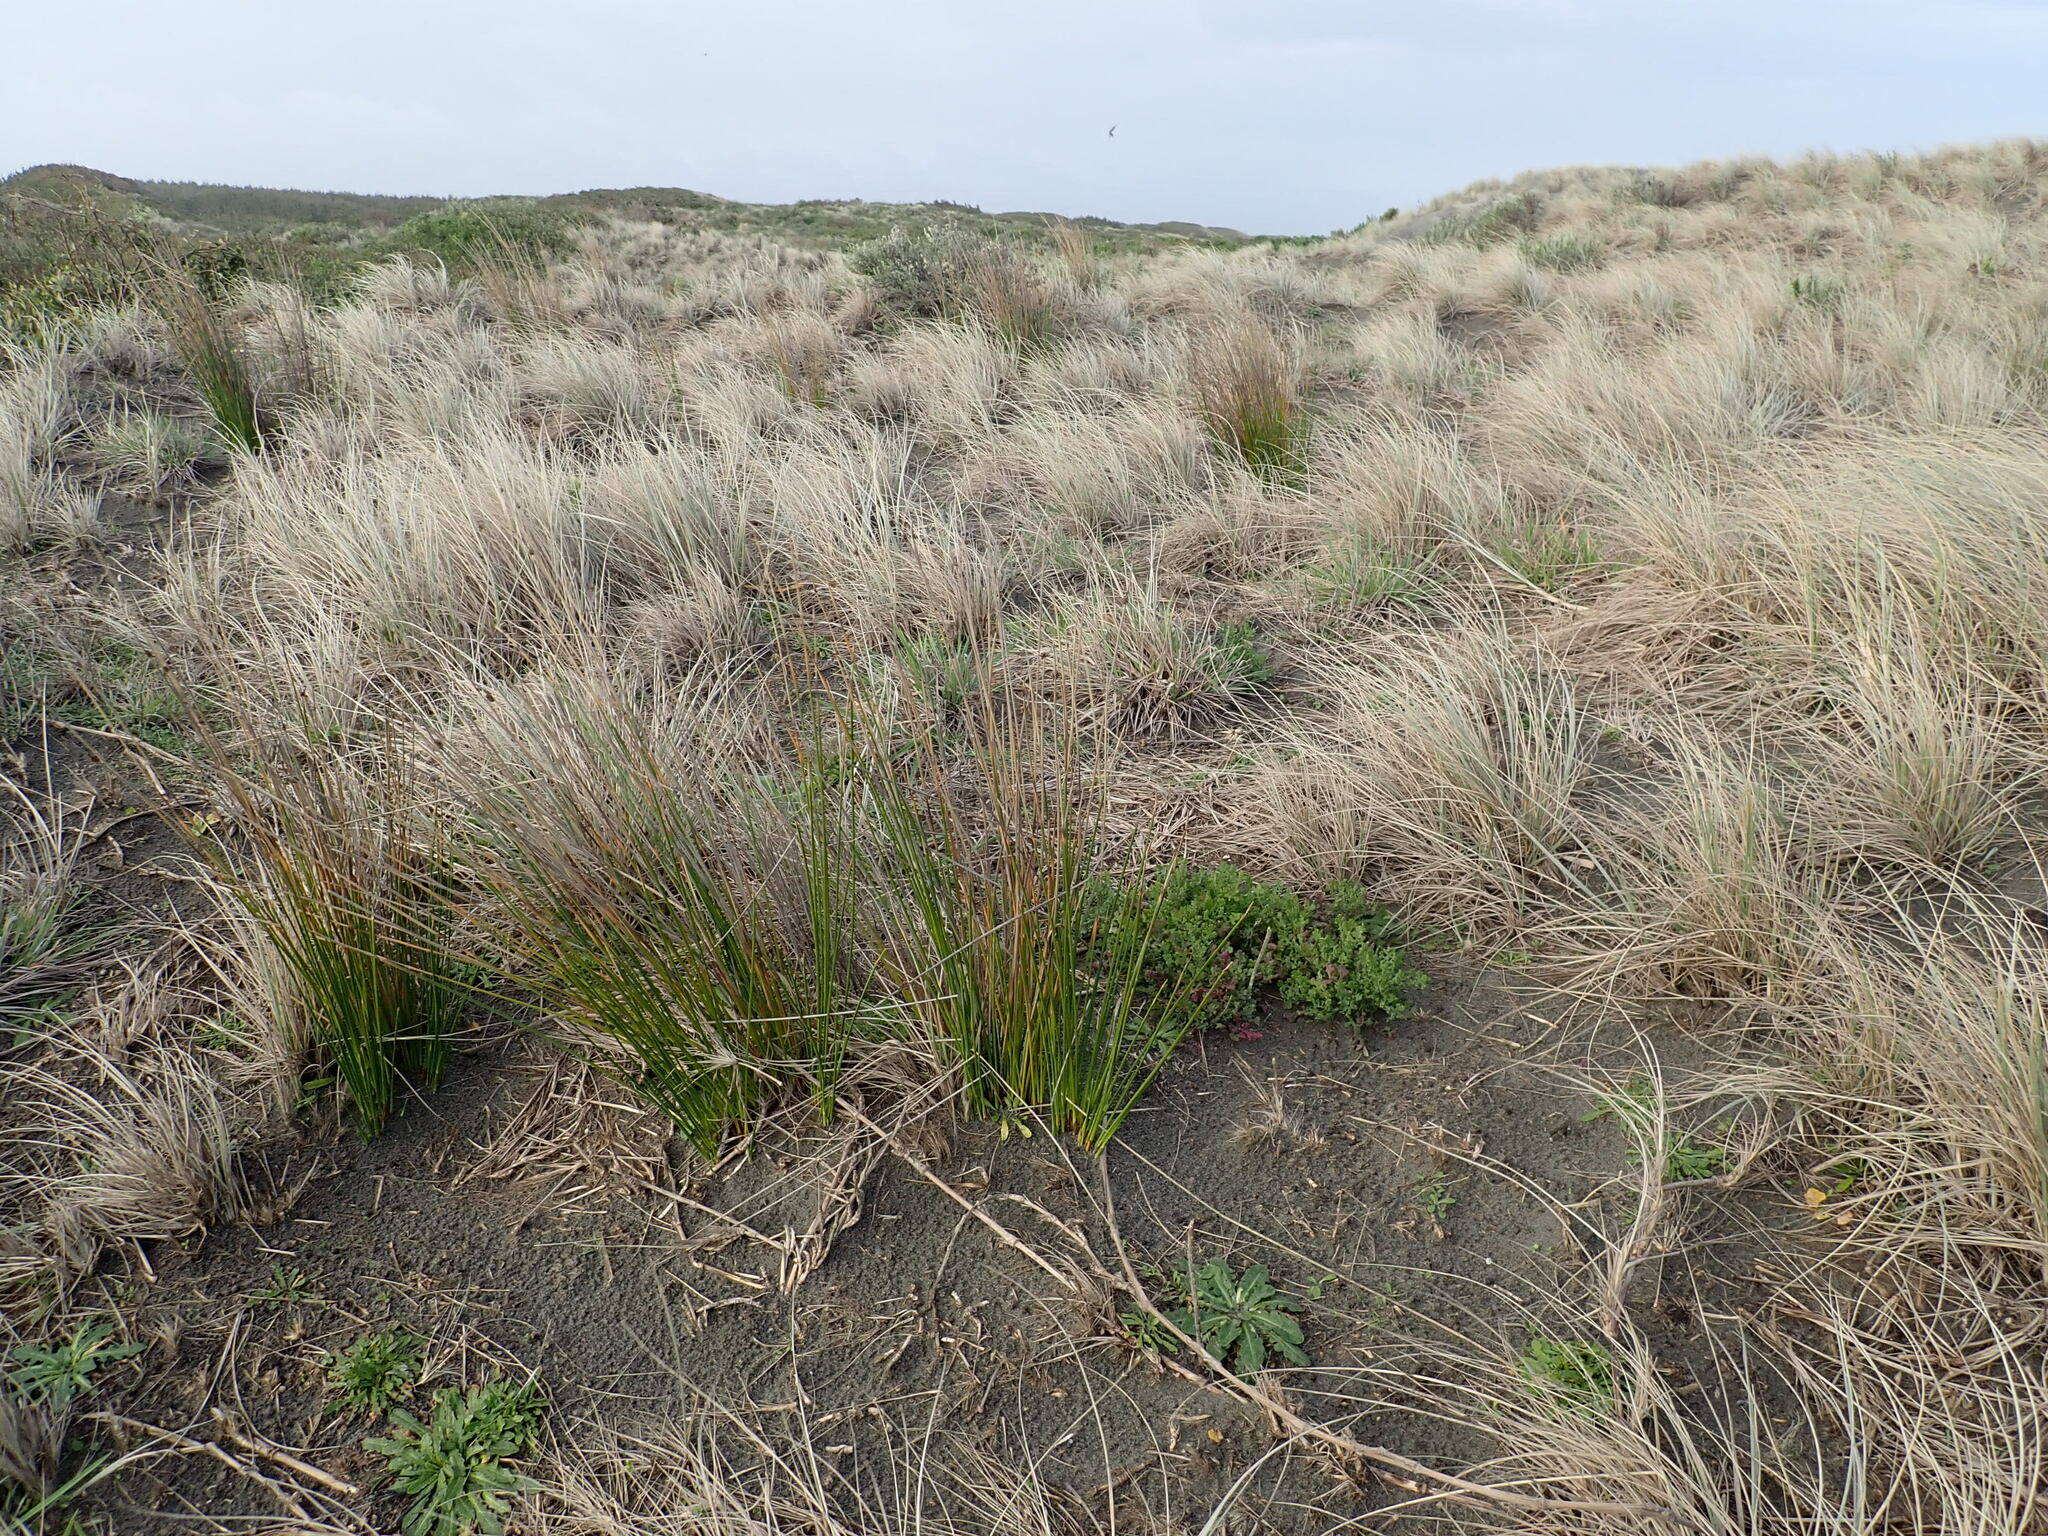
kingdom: Plantae
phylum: Tracheophyta
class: Liliopsida
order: Poales
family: Cyperaceae
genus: Ficinia
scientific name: Ficinia nodosa
